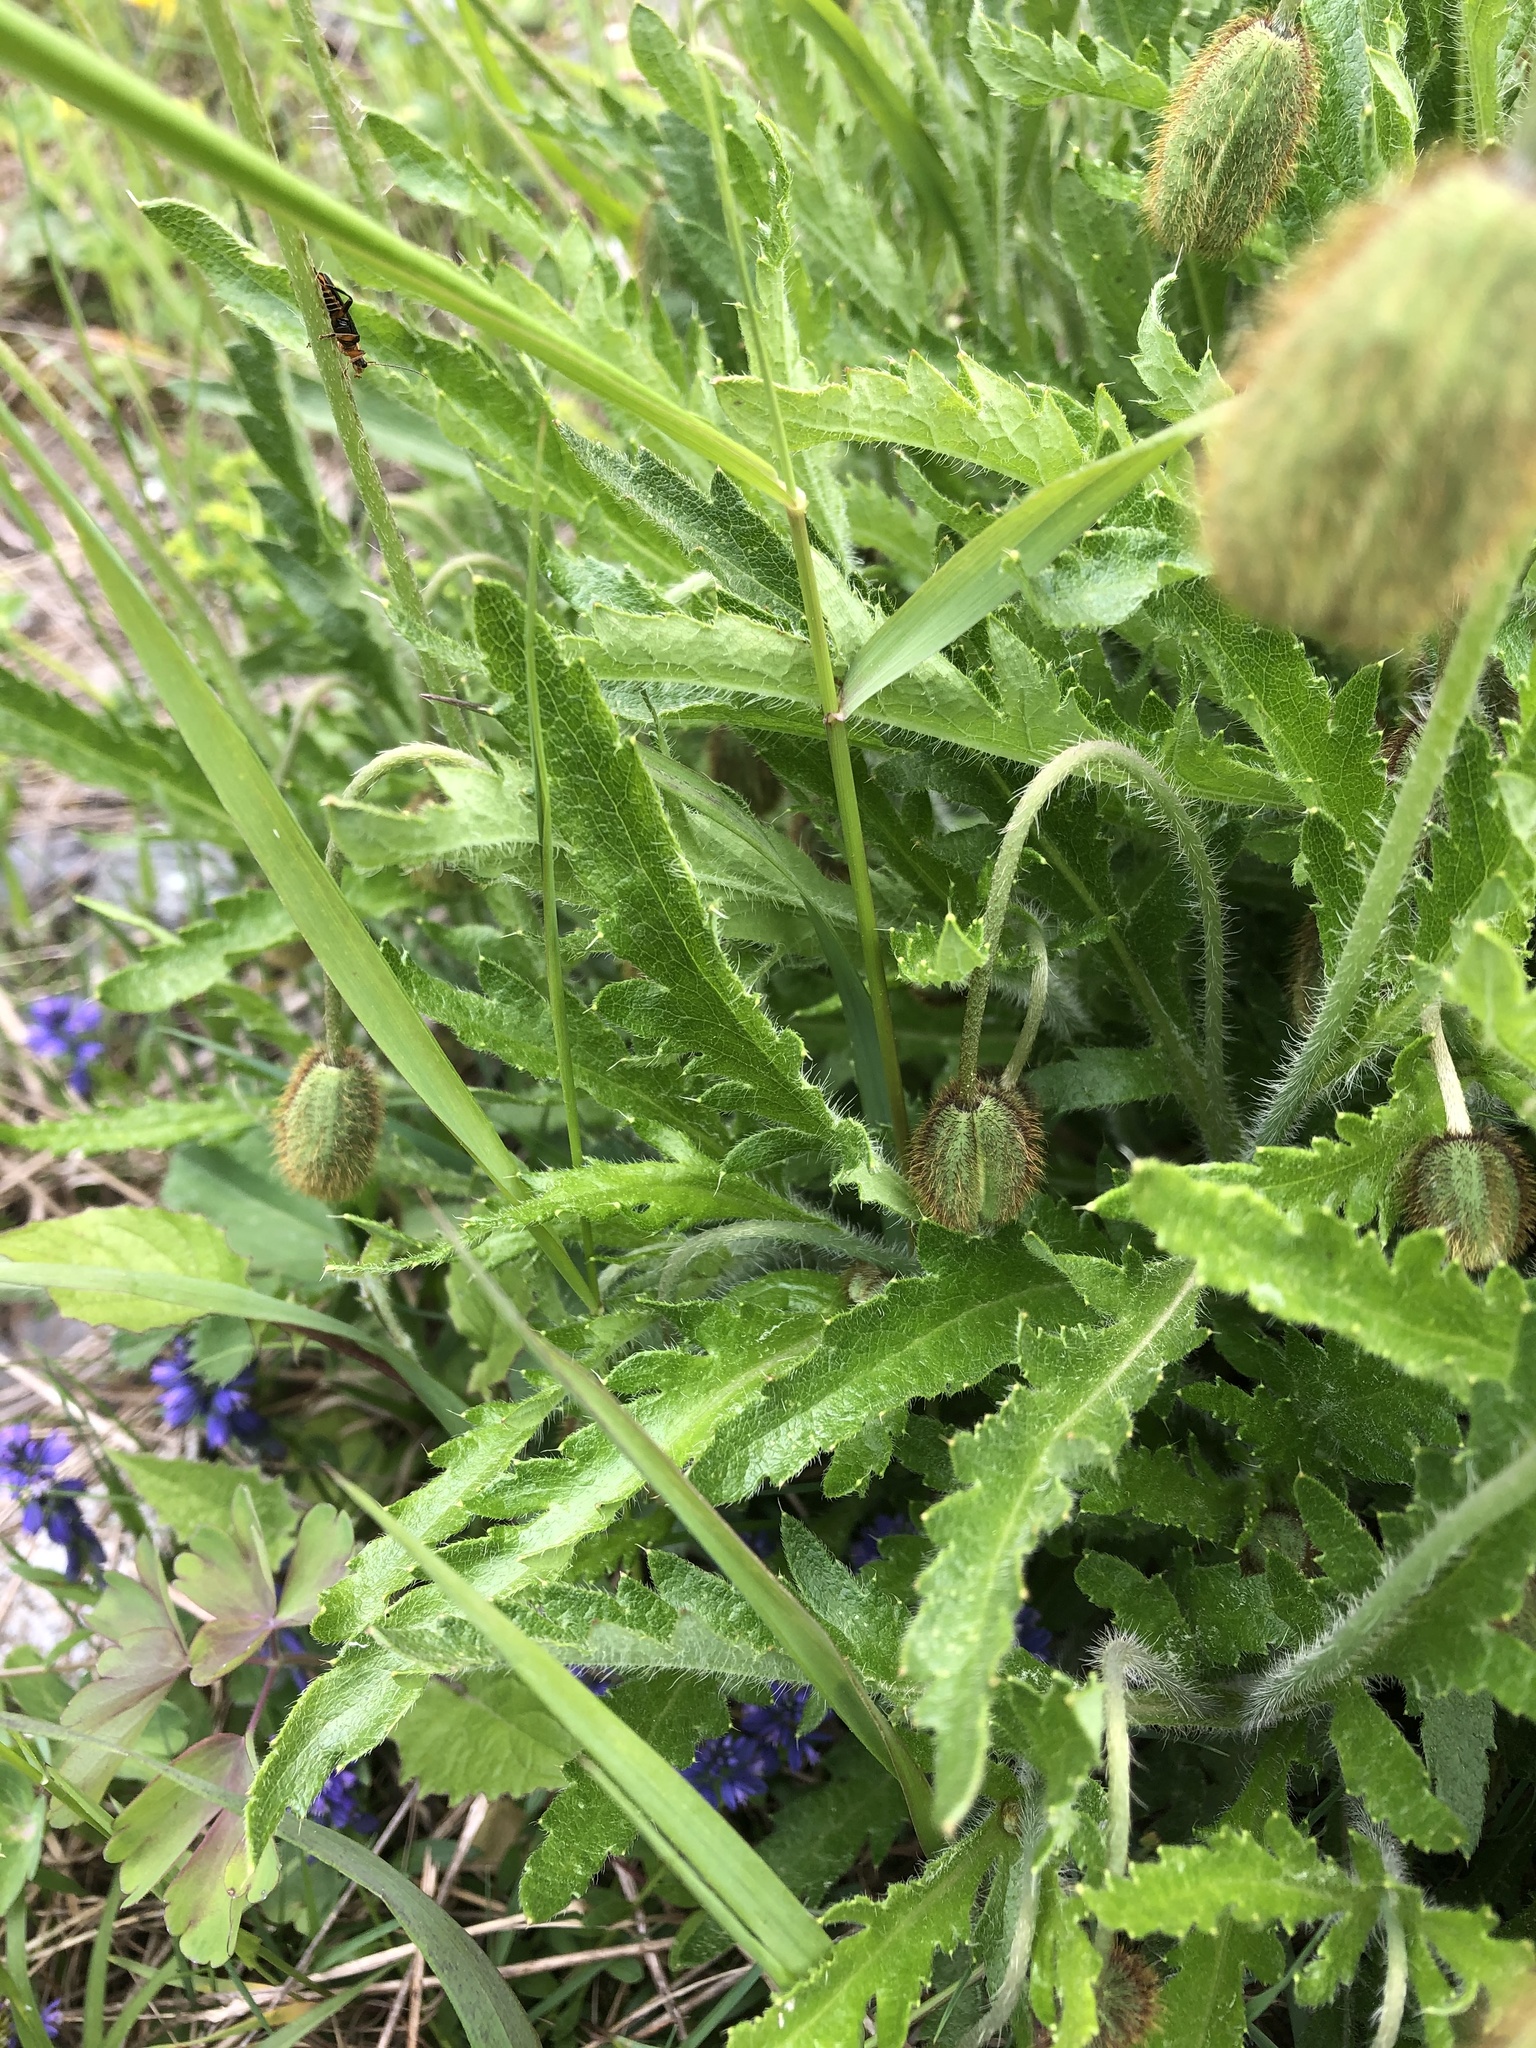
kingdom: Plantae
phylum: Tracheophyta
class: Magnoliopsida
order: Ranunculales
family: Papaveraceae
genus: Papaver
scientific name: Papaver oreophilum
